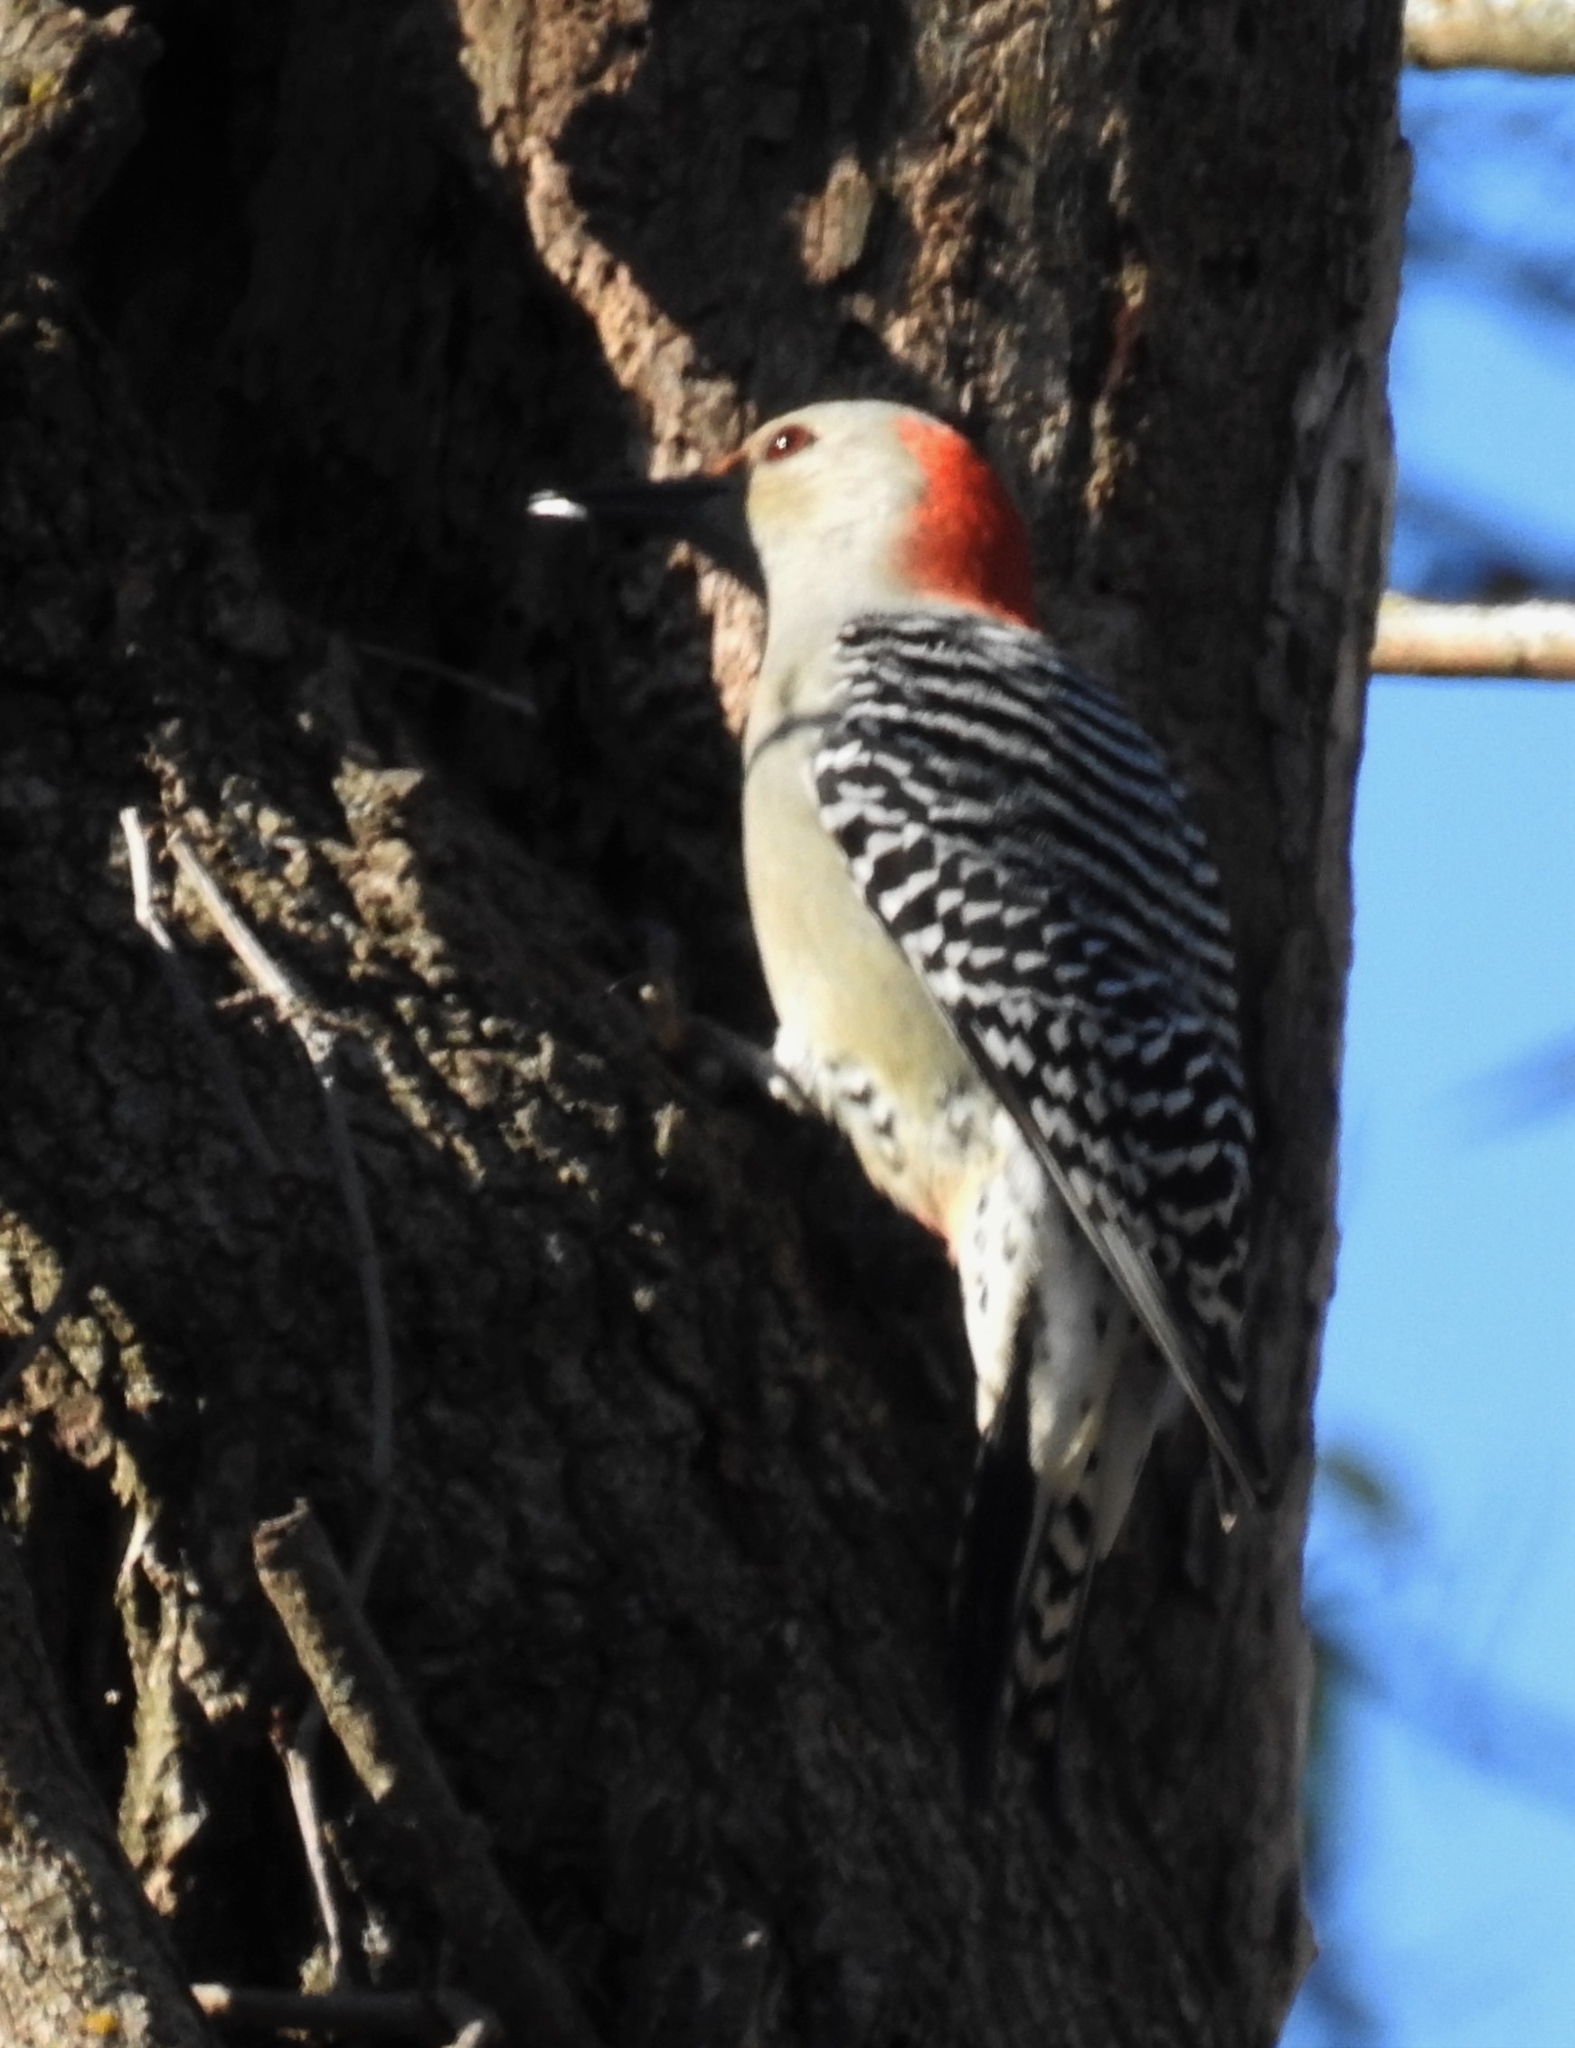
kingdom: Animalia
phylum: Chordata
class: Aves
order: Piciformes
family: Picidae
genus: Melanerpes
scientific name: Melanerpes carolinus
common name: Red-bellied woodpecker
